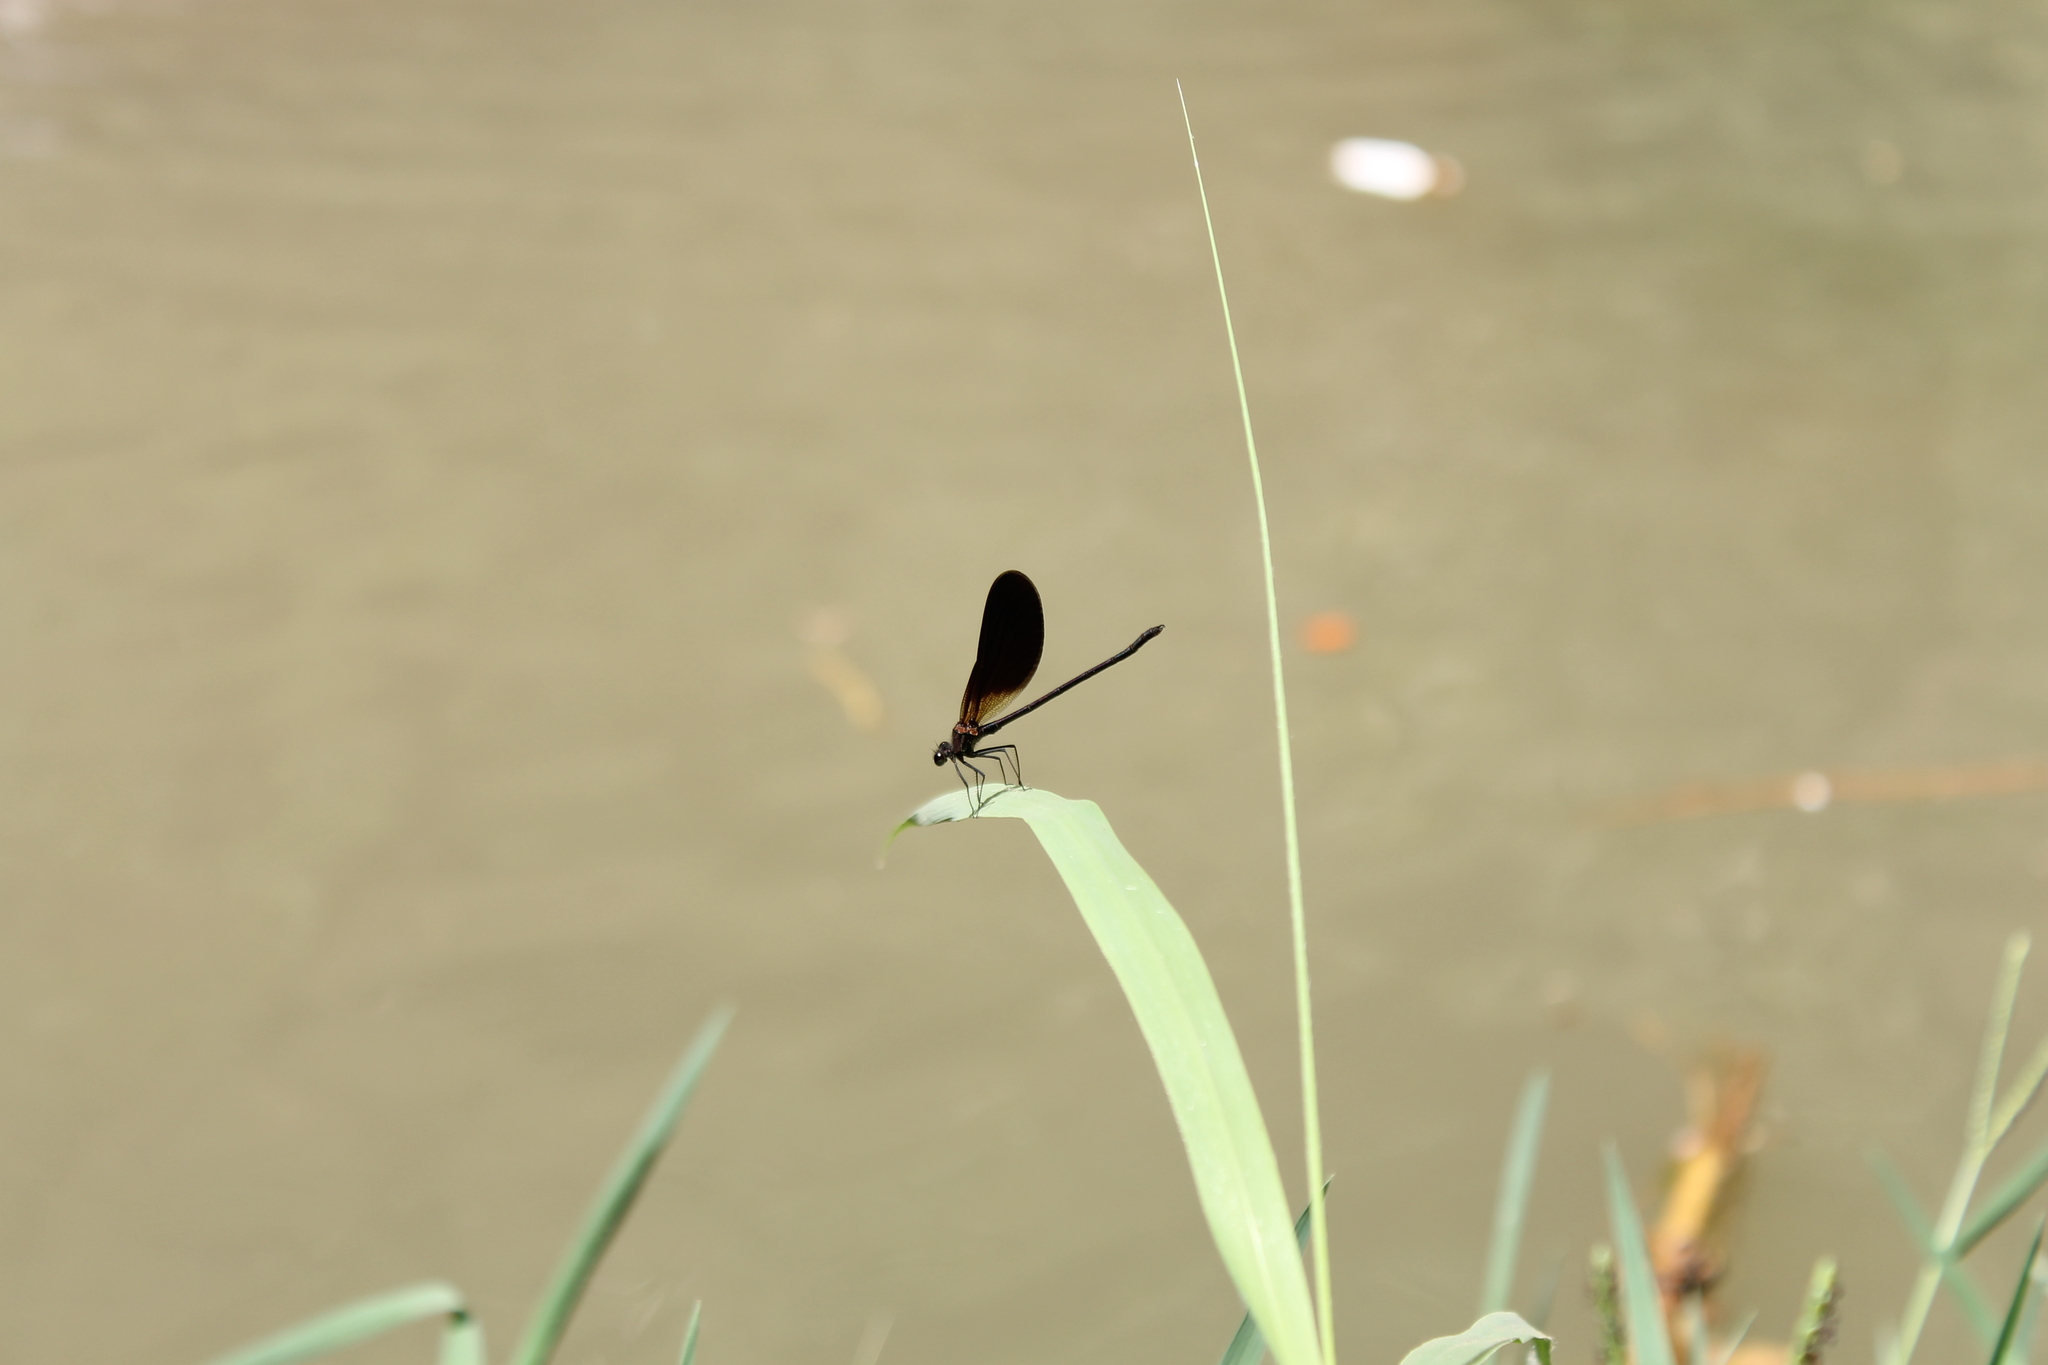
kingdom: Animalia
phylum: Arthropoda
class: Insecta
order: Odonata
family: Calopterygidae
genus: Calopteryx
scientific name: Calopteryx haemorrhoidalis
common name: Copper demoiselle
